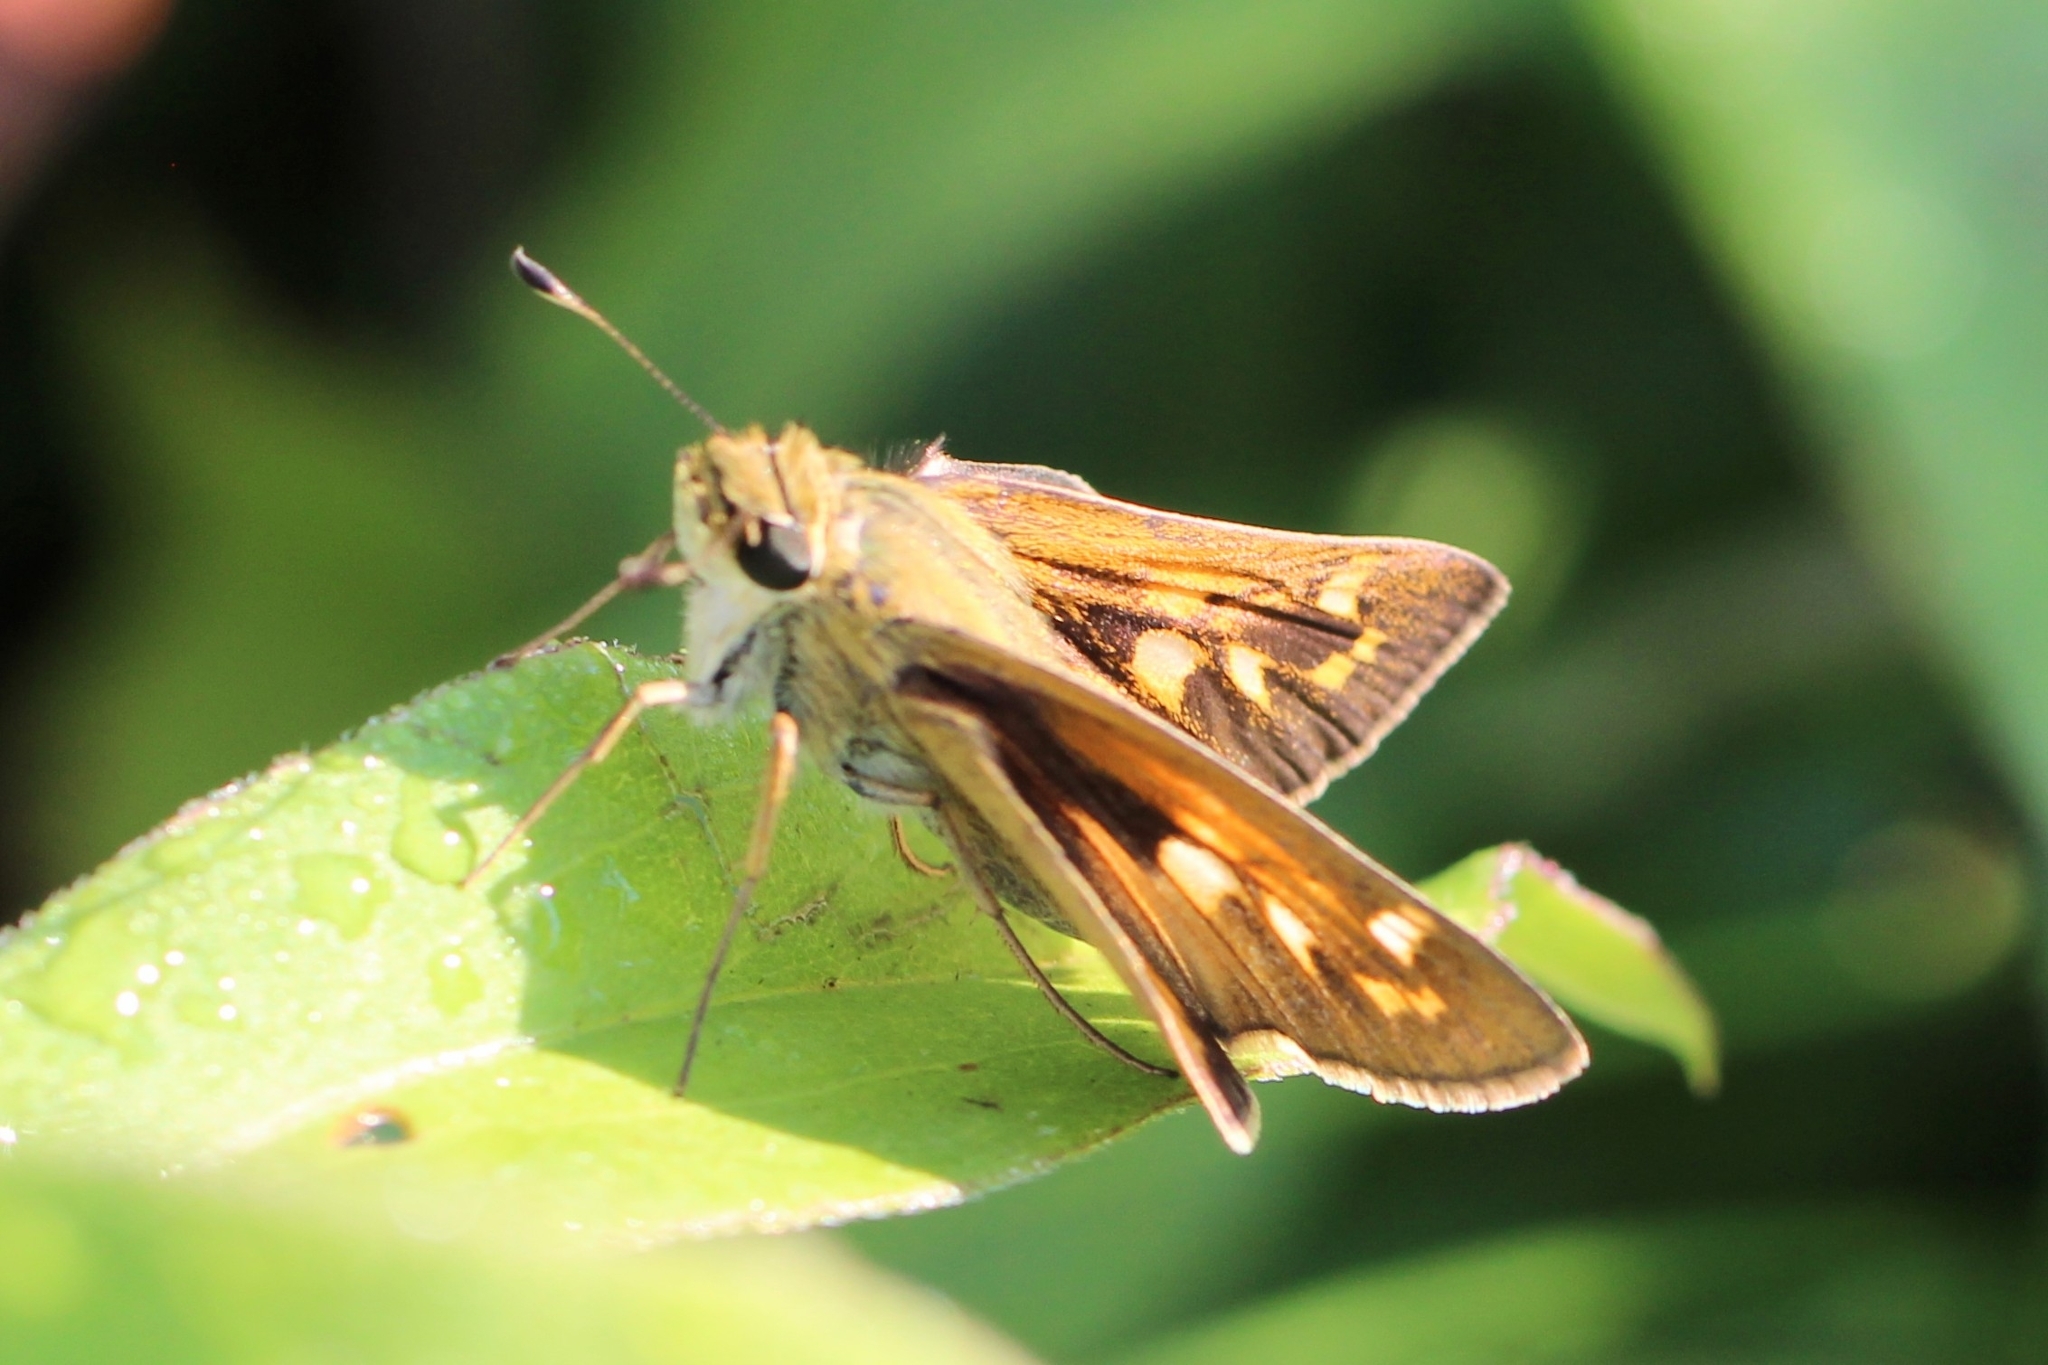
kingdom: Animalia
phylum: Arthropoda
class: Insecta
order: Lepidoptera
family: Hesperiidae
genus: Atalopedes
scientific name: Atalopedes
